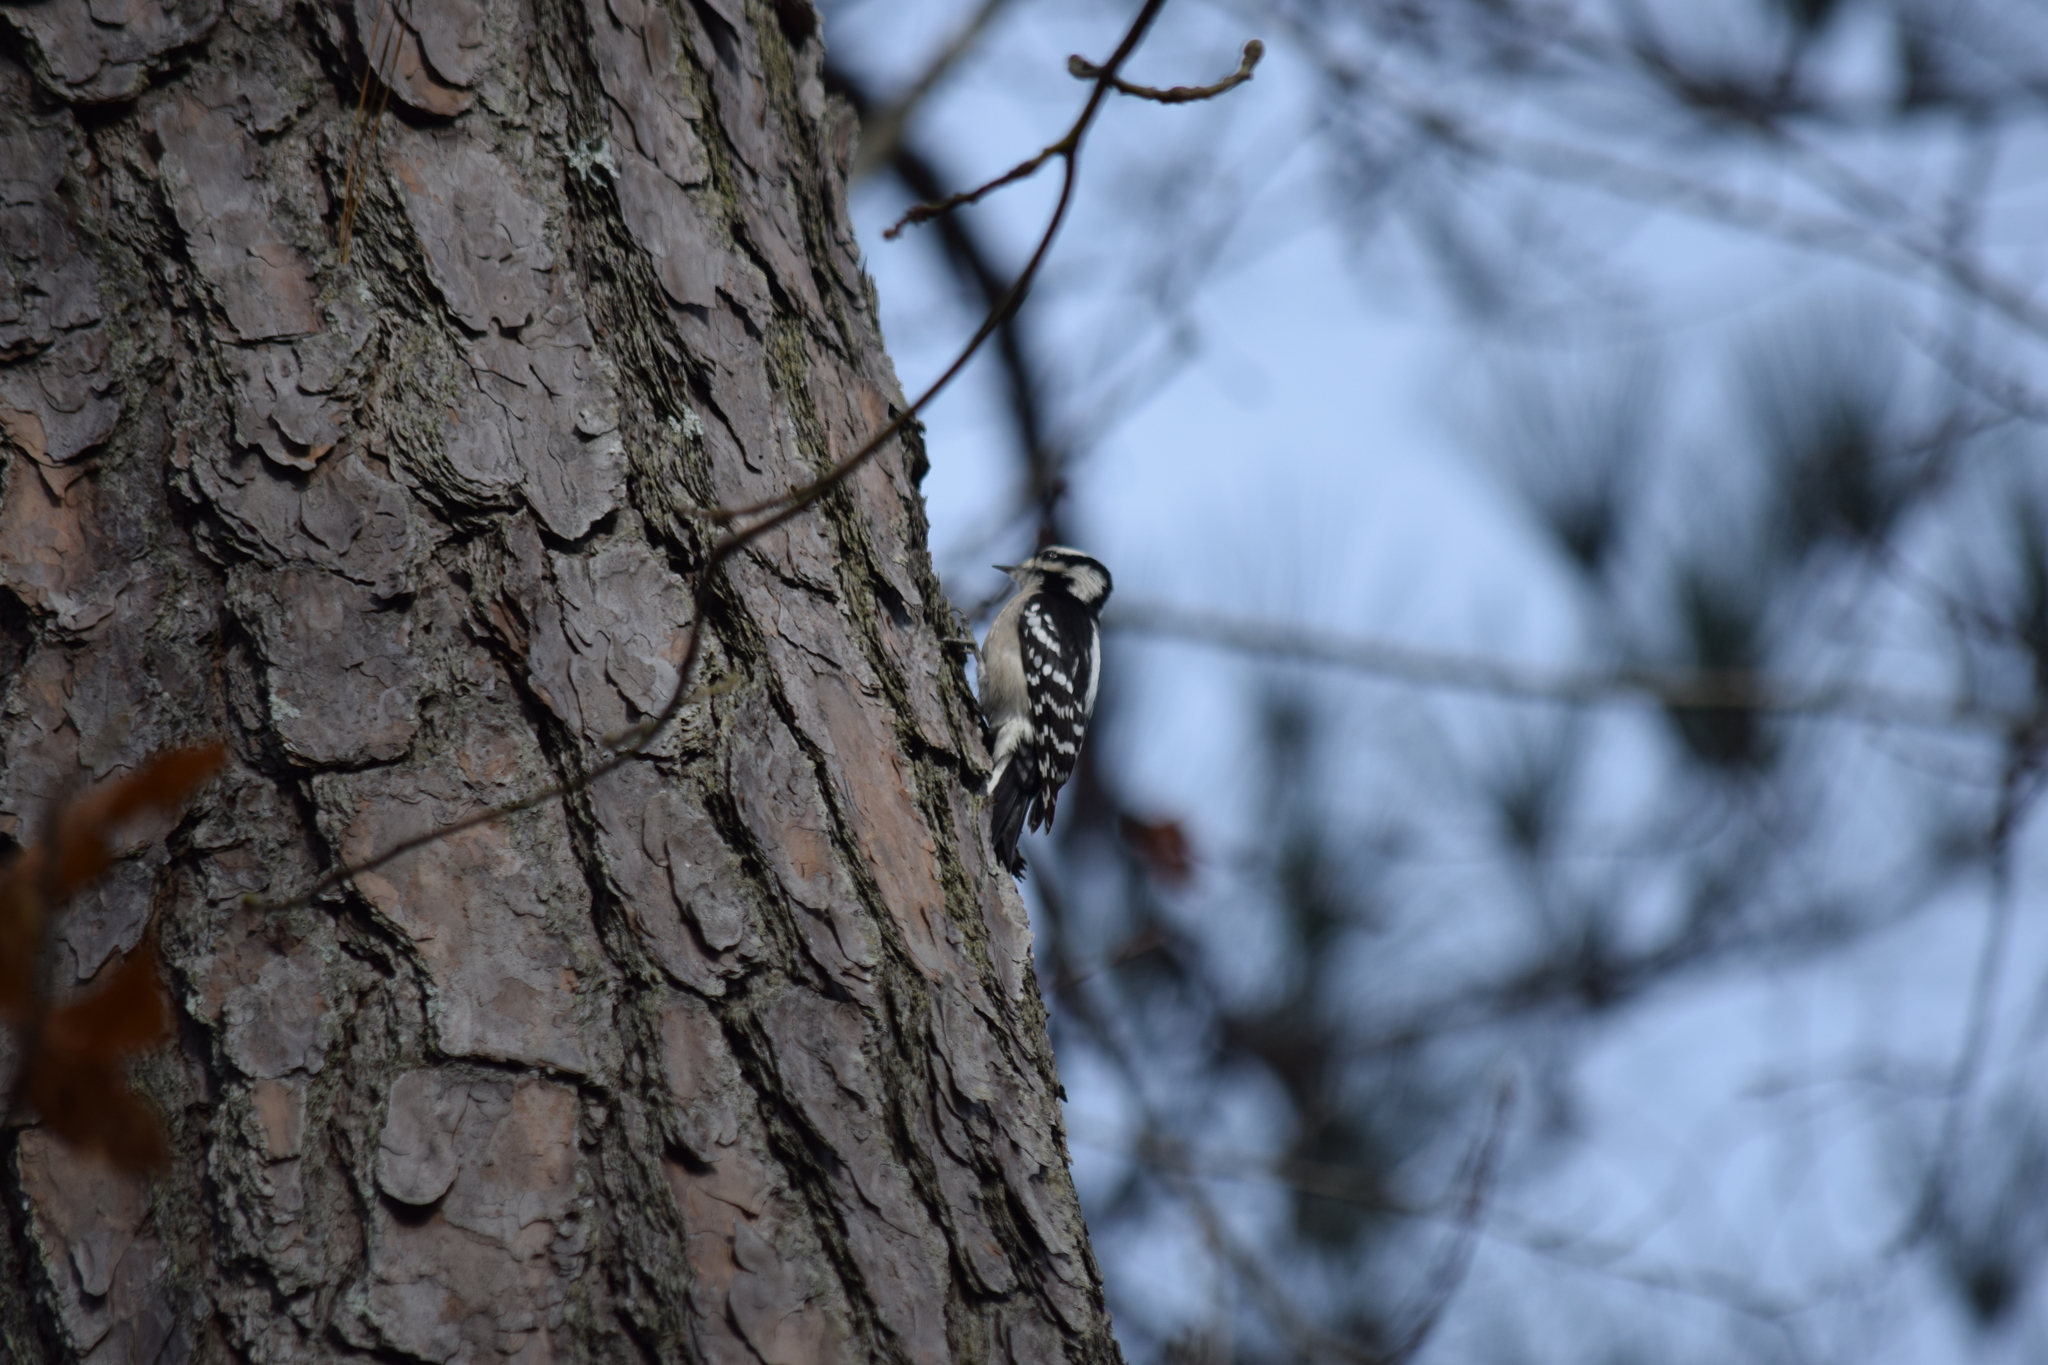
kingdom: Animalia
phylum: Chordata
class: Aves
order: Piciformes
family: Picidae
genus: Dryobates
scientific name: Dryobates pubescens
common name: Downy woodpecker
